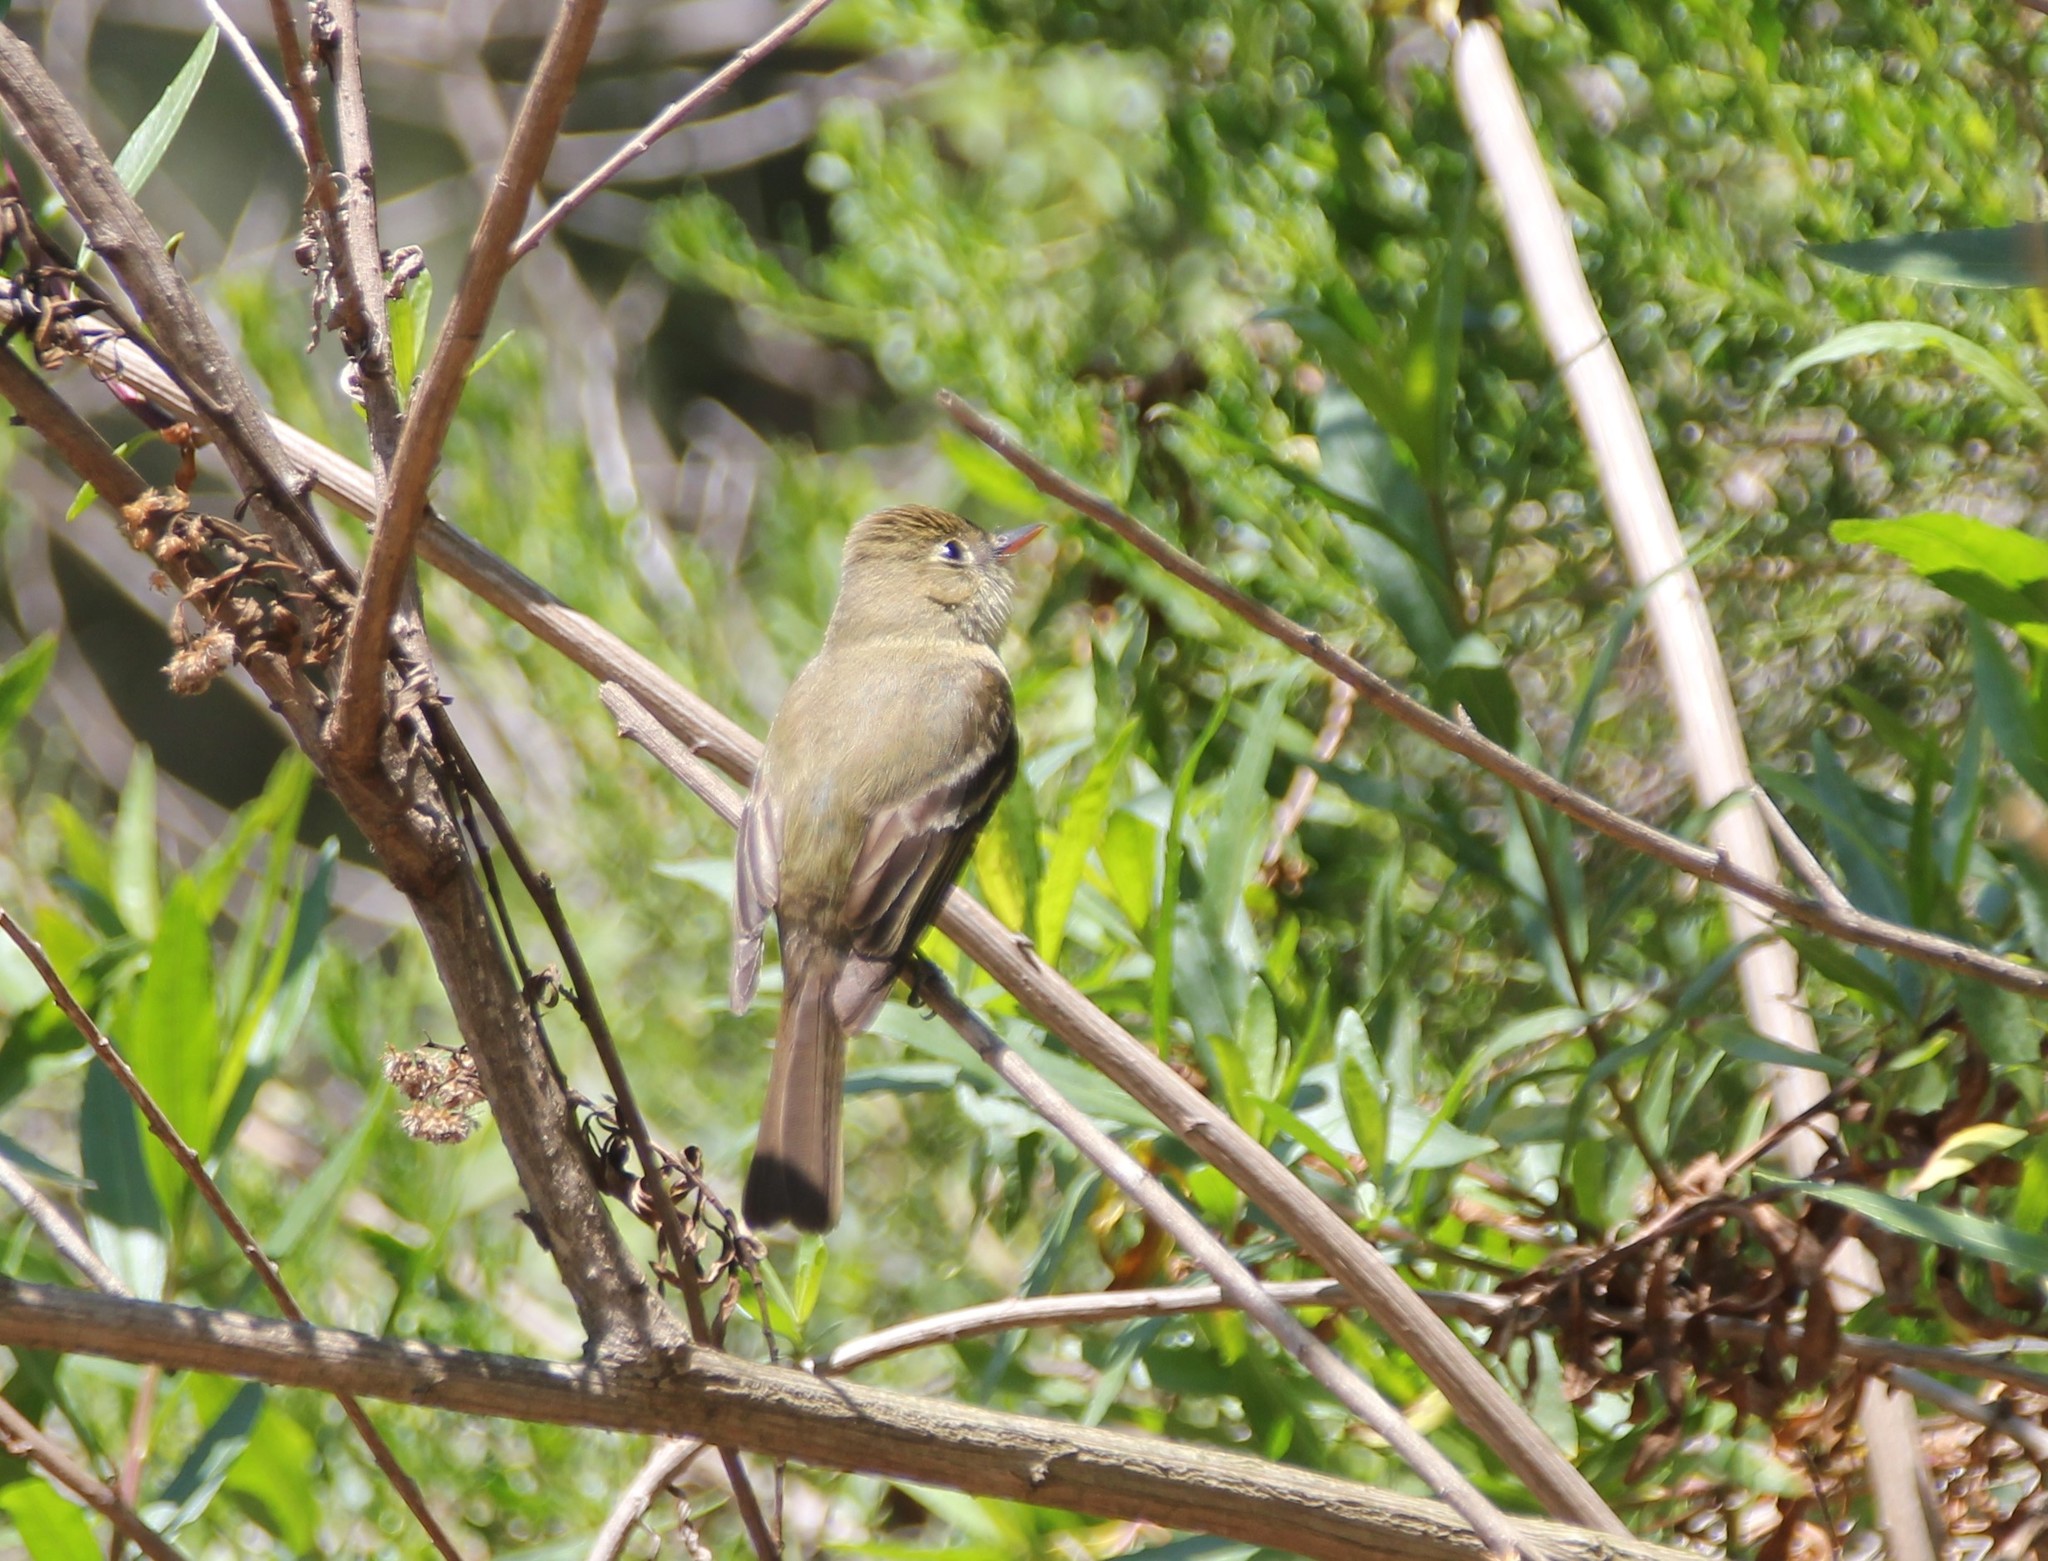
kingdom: Animalia
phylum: Chordata
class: Aves
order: Passeriformes
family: Tyrannidae
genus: Empidonax
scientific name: Empidonax difficilis
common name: Pacific-slope flycatcher
